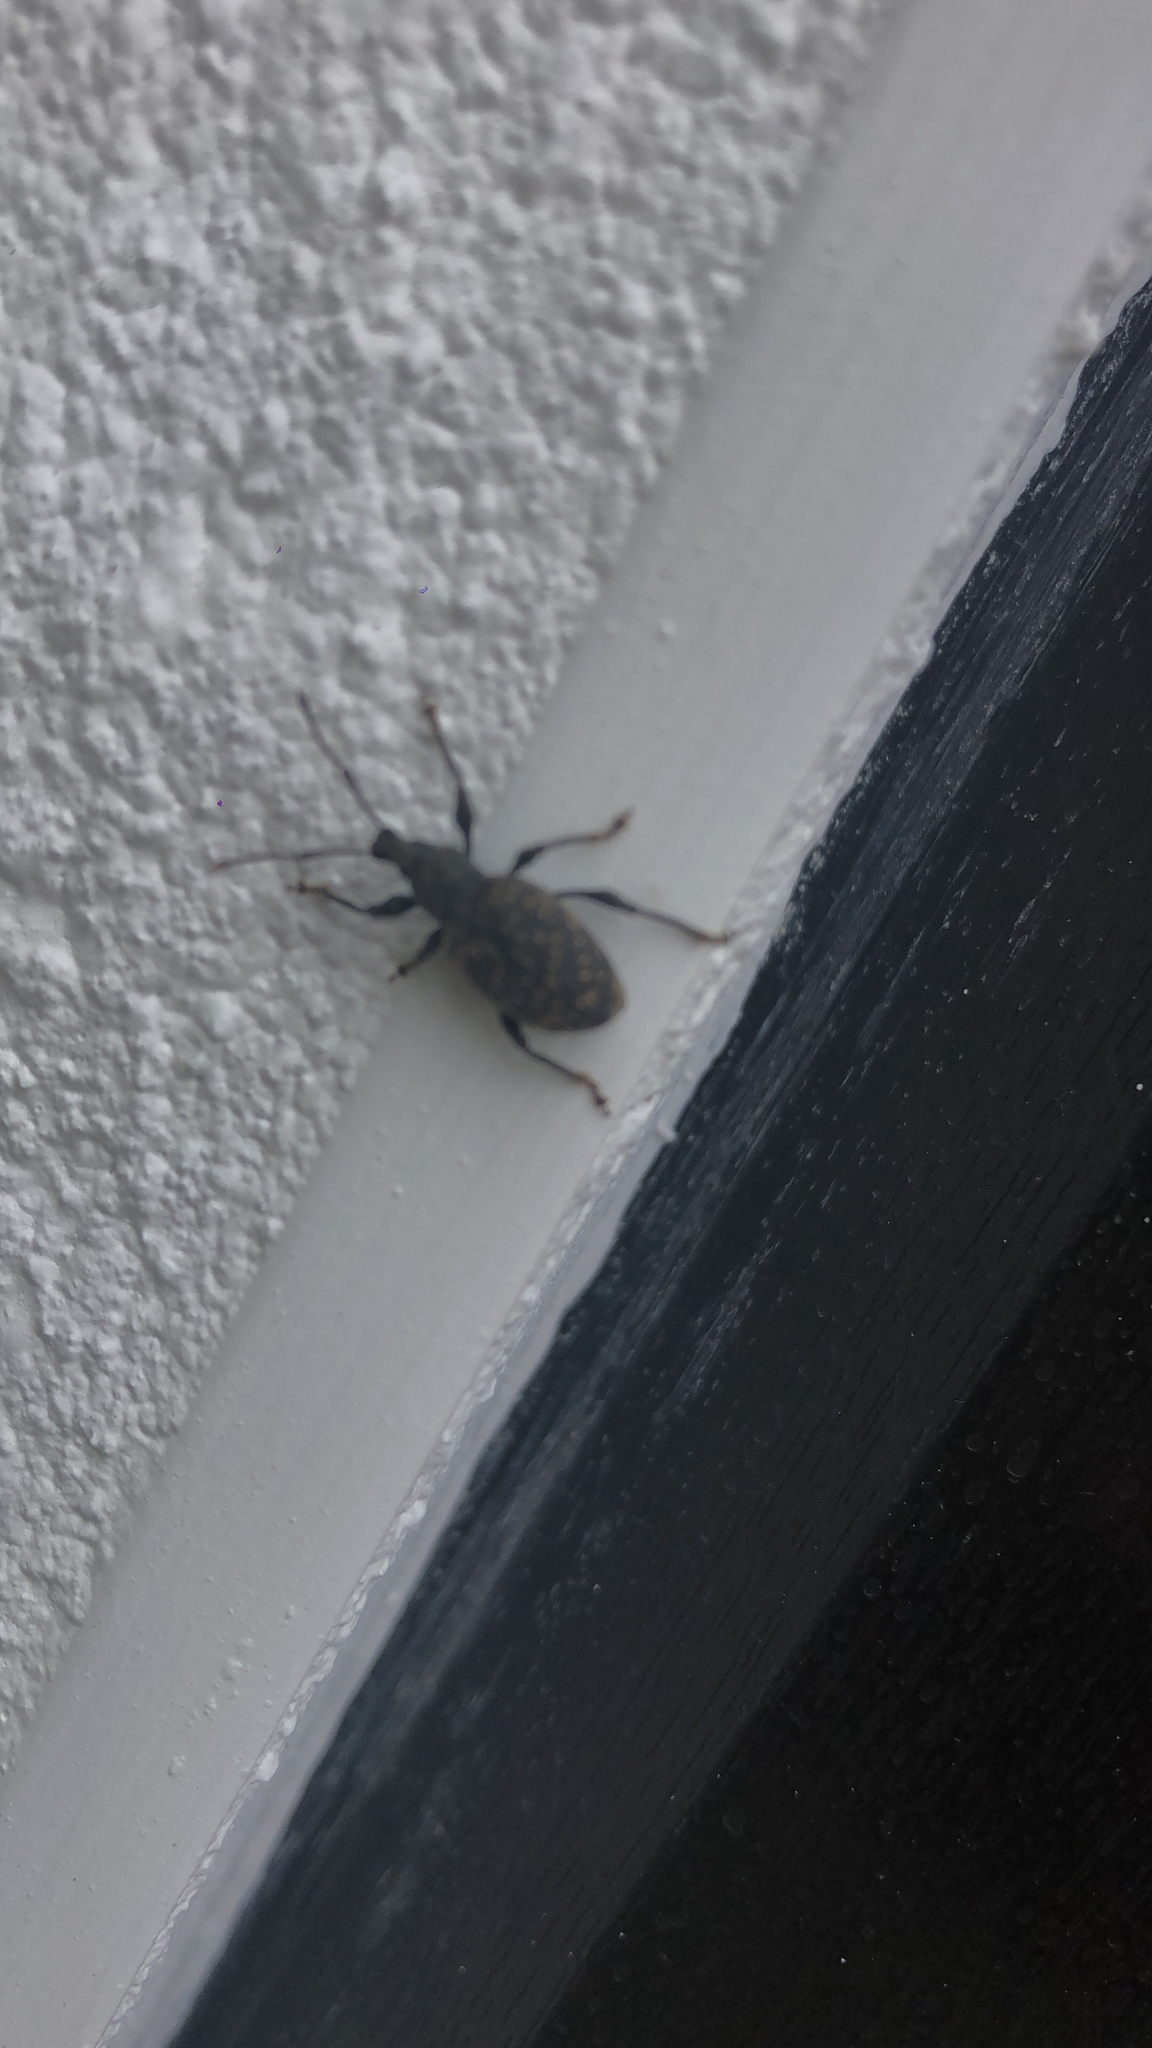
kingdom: Animalia
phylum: Arthropoda
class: Insecta
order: Coleoptera
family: Curculionidae
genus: Otiorhynchus
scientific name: Otiorhynchus sulcatus
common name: Black vine weevil
